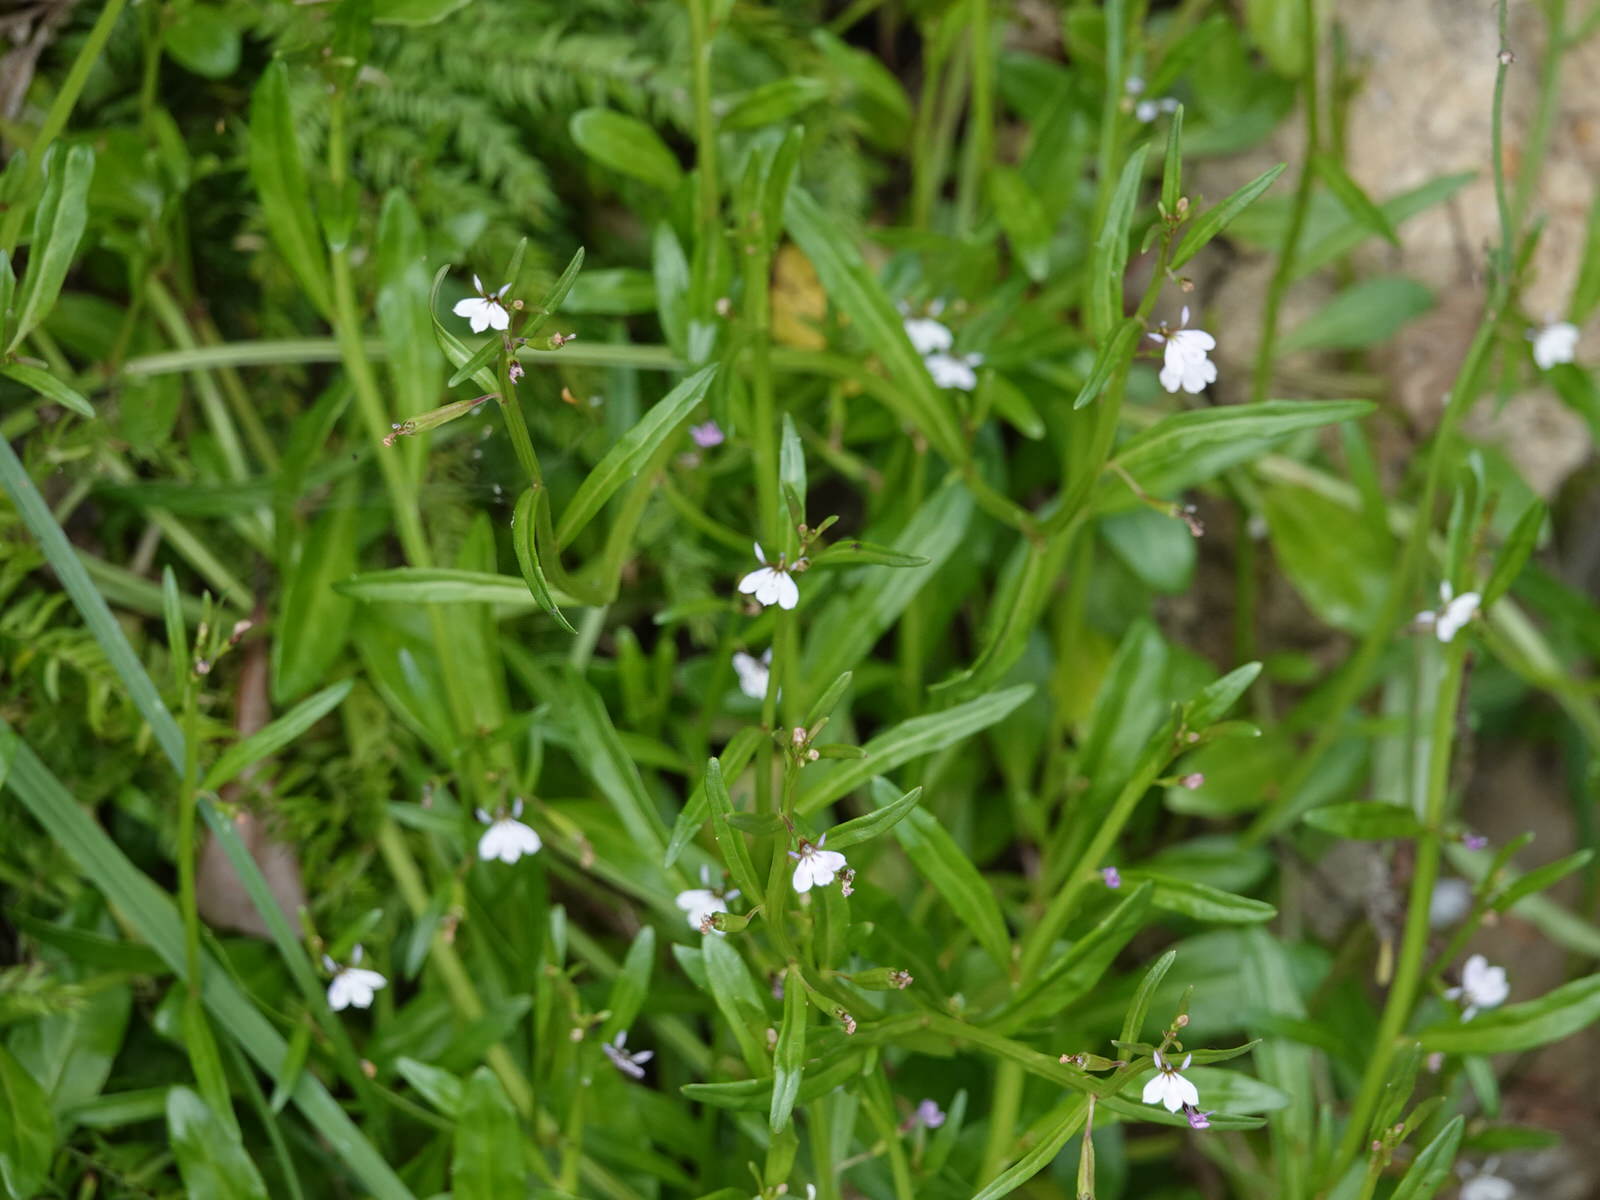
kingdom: Plantae
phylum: Tracheophyta
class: Magnoliopsida
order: Asterales
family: Campanulaceae
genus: Lobelia
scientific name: Lobelia anceps
